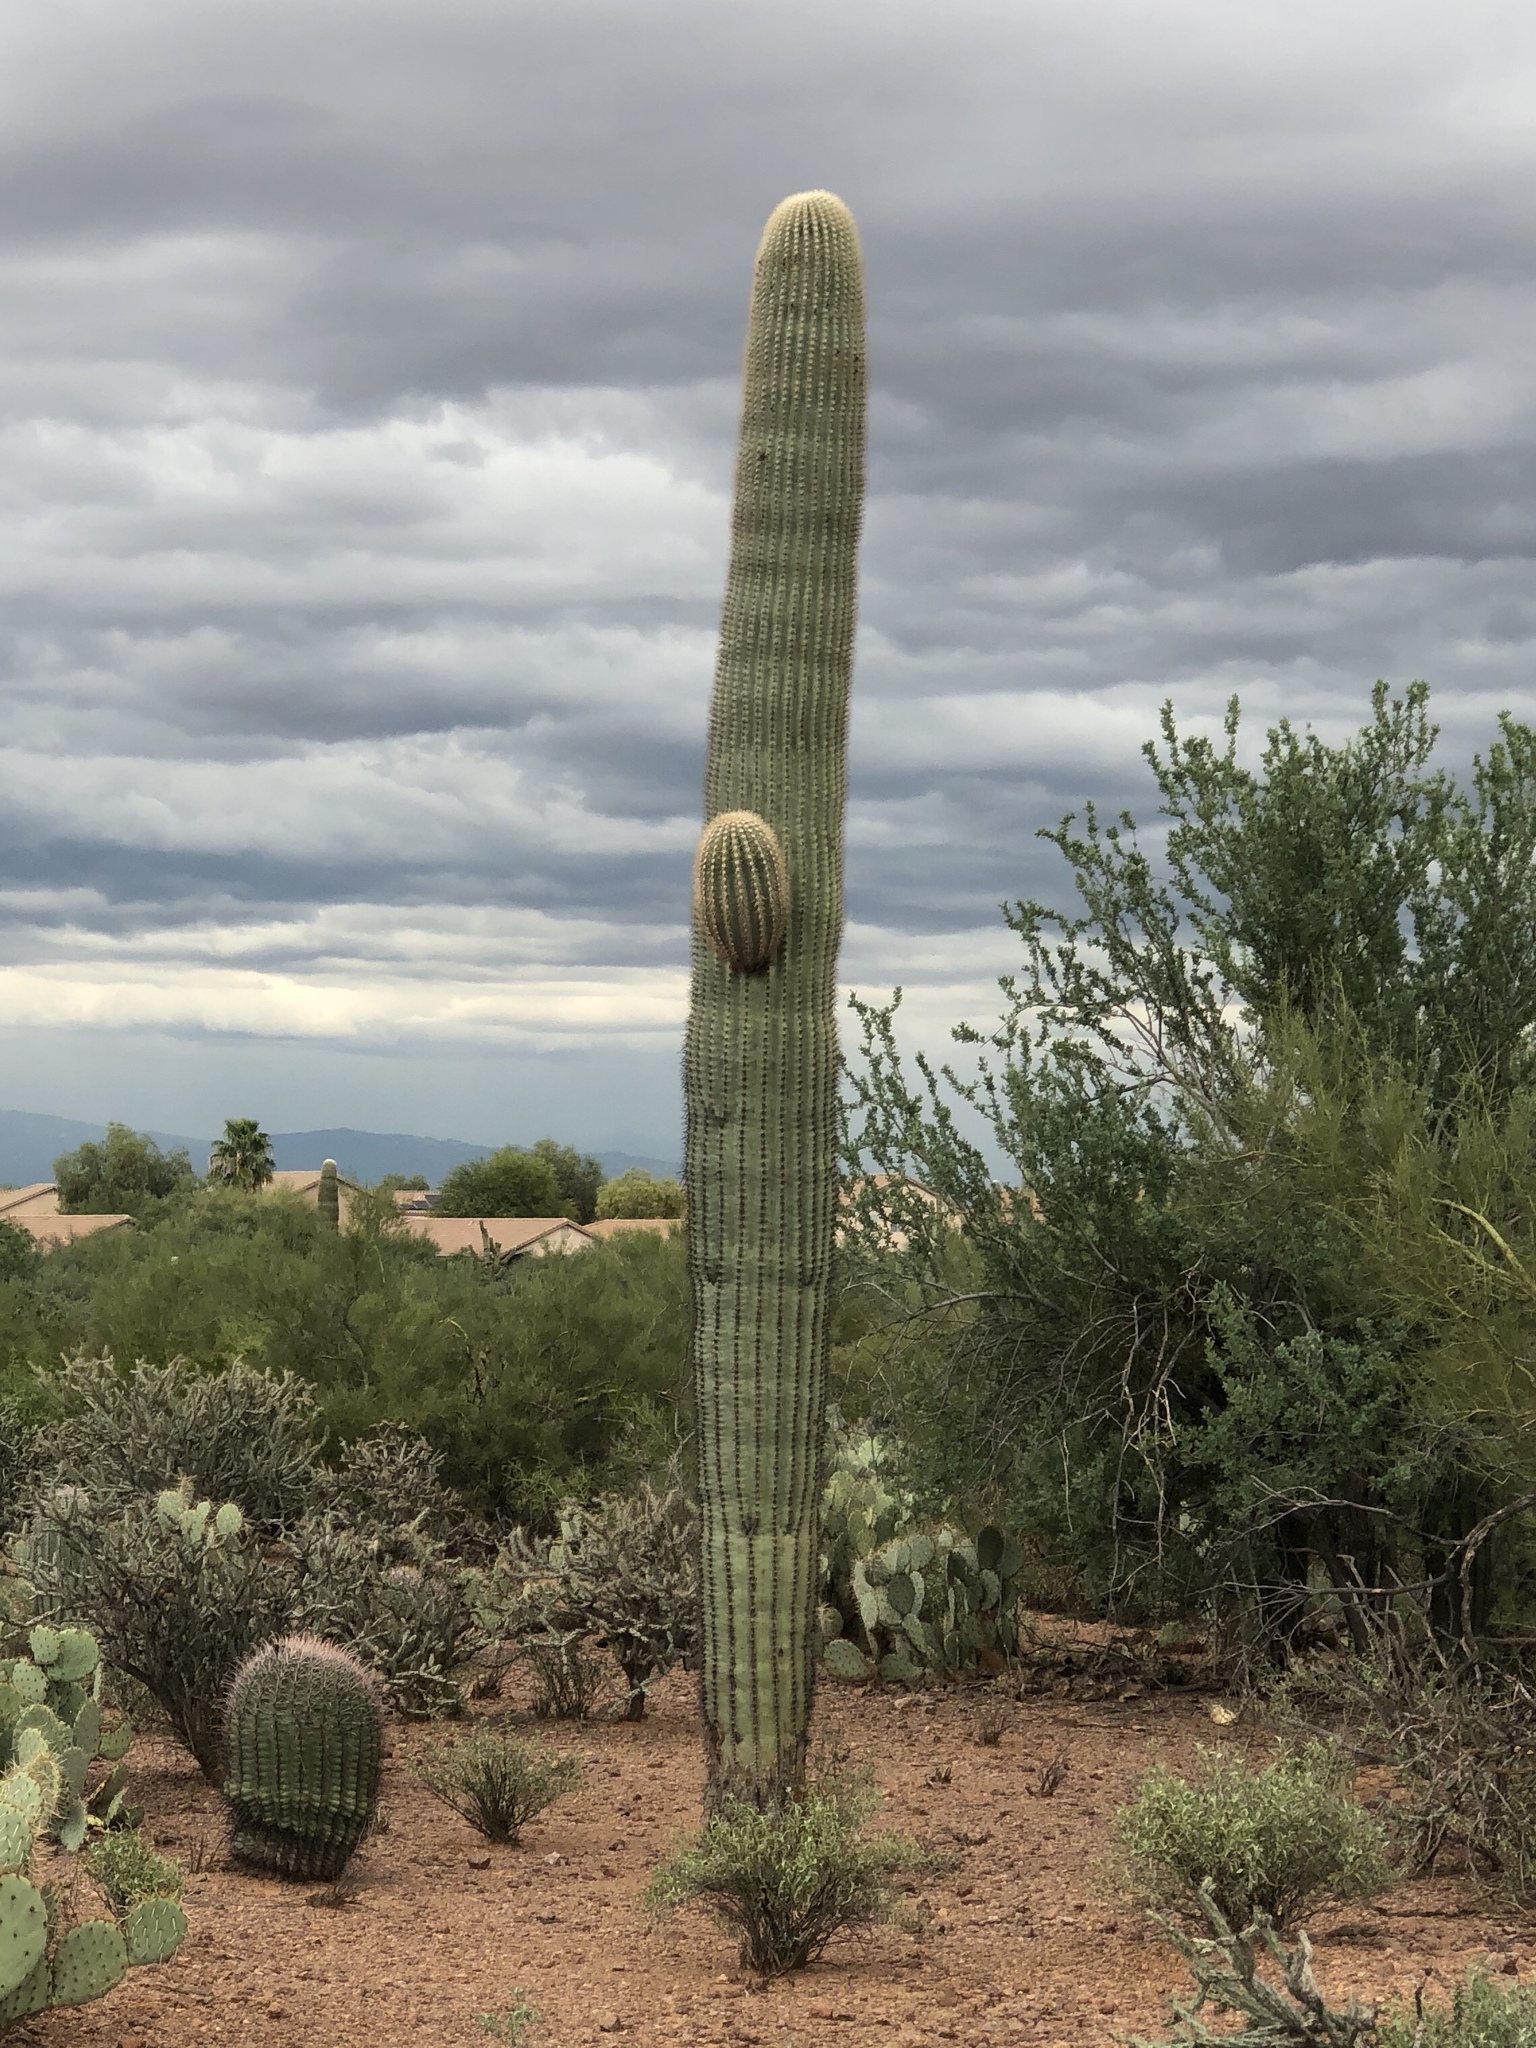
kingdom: Plantae
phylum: Tracheophyta
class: Magnoliopsida
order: Caryophyllales
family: Cactaceae
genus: Carnegiea
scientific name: Carnegiea gigantea
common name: Saguaro
